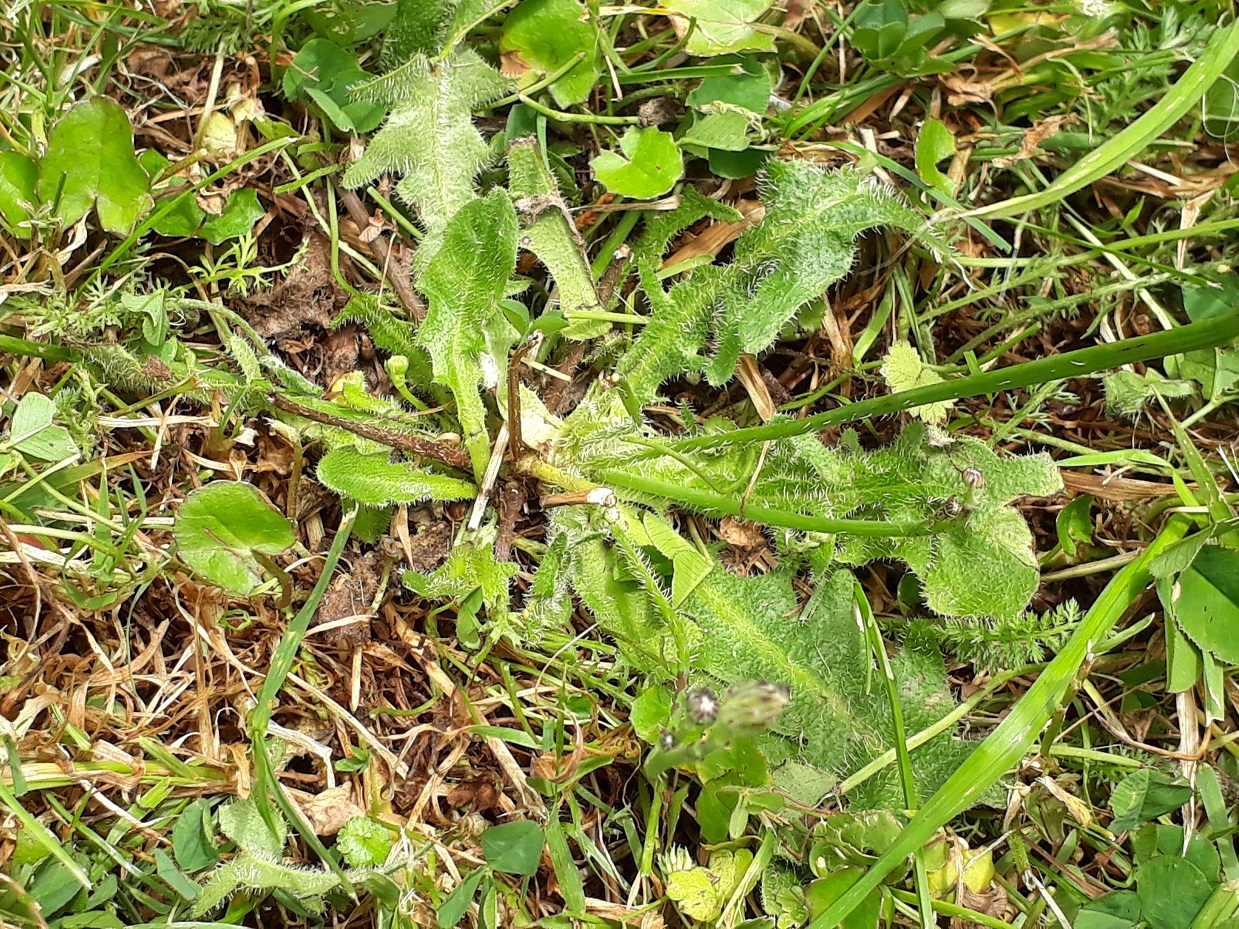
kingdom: Plantae
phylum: Tracheophyta
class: Magnoliopsida
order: Asterales
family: Asteraceae
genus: Hypochaeris
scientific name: Hypochaeris radicata
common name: Flatweed
